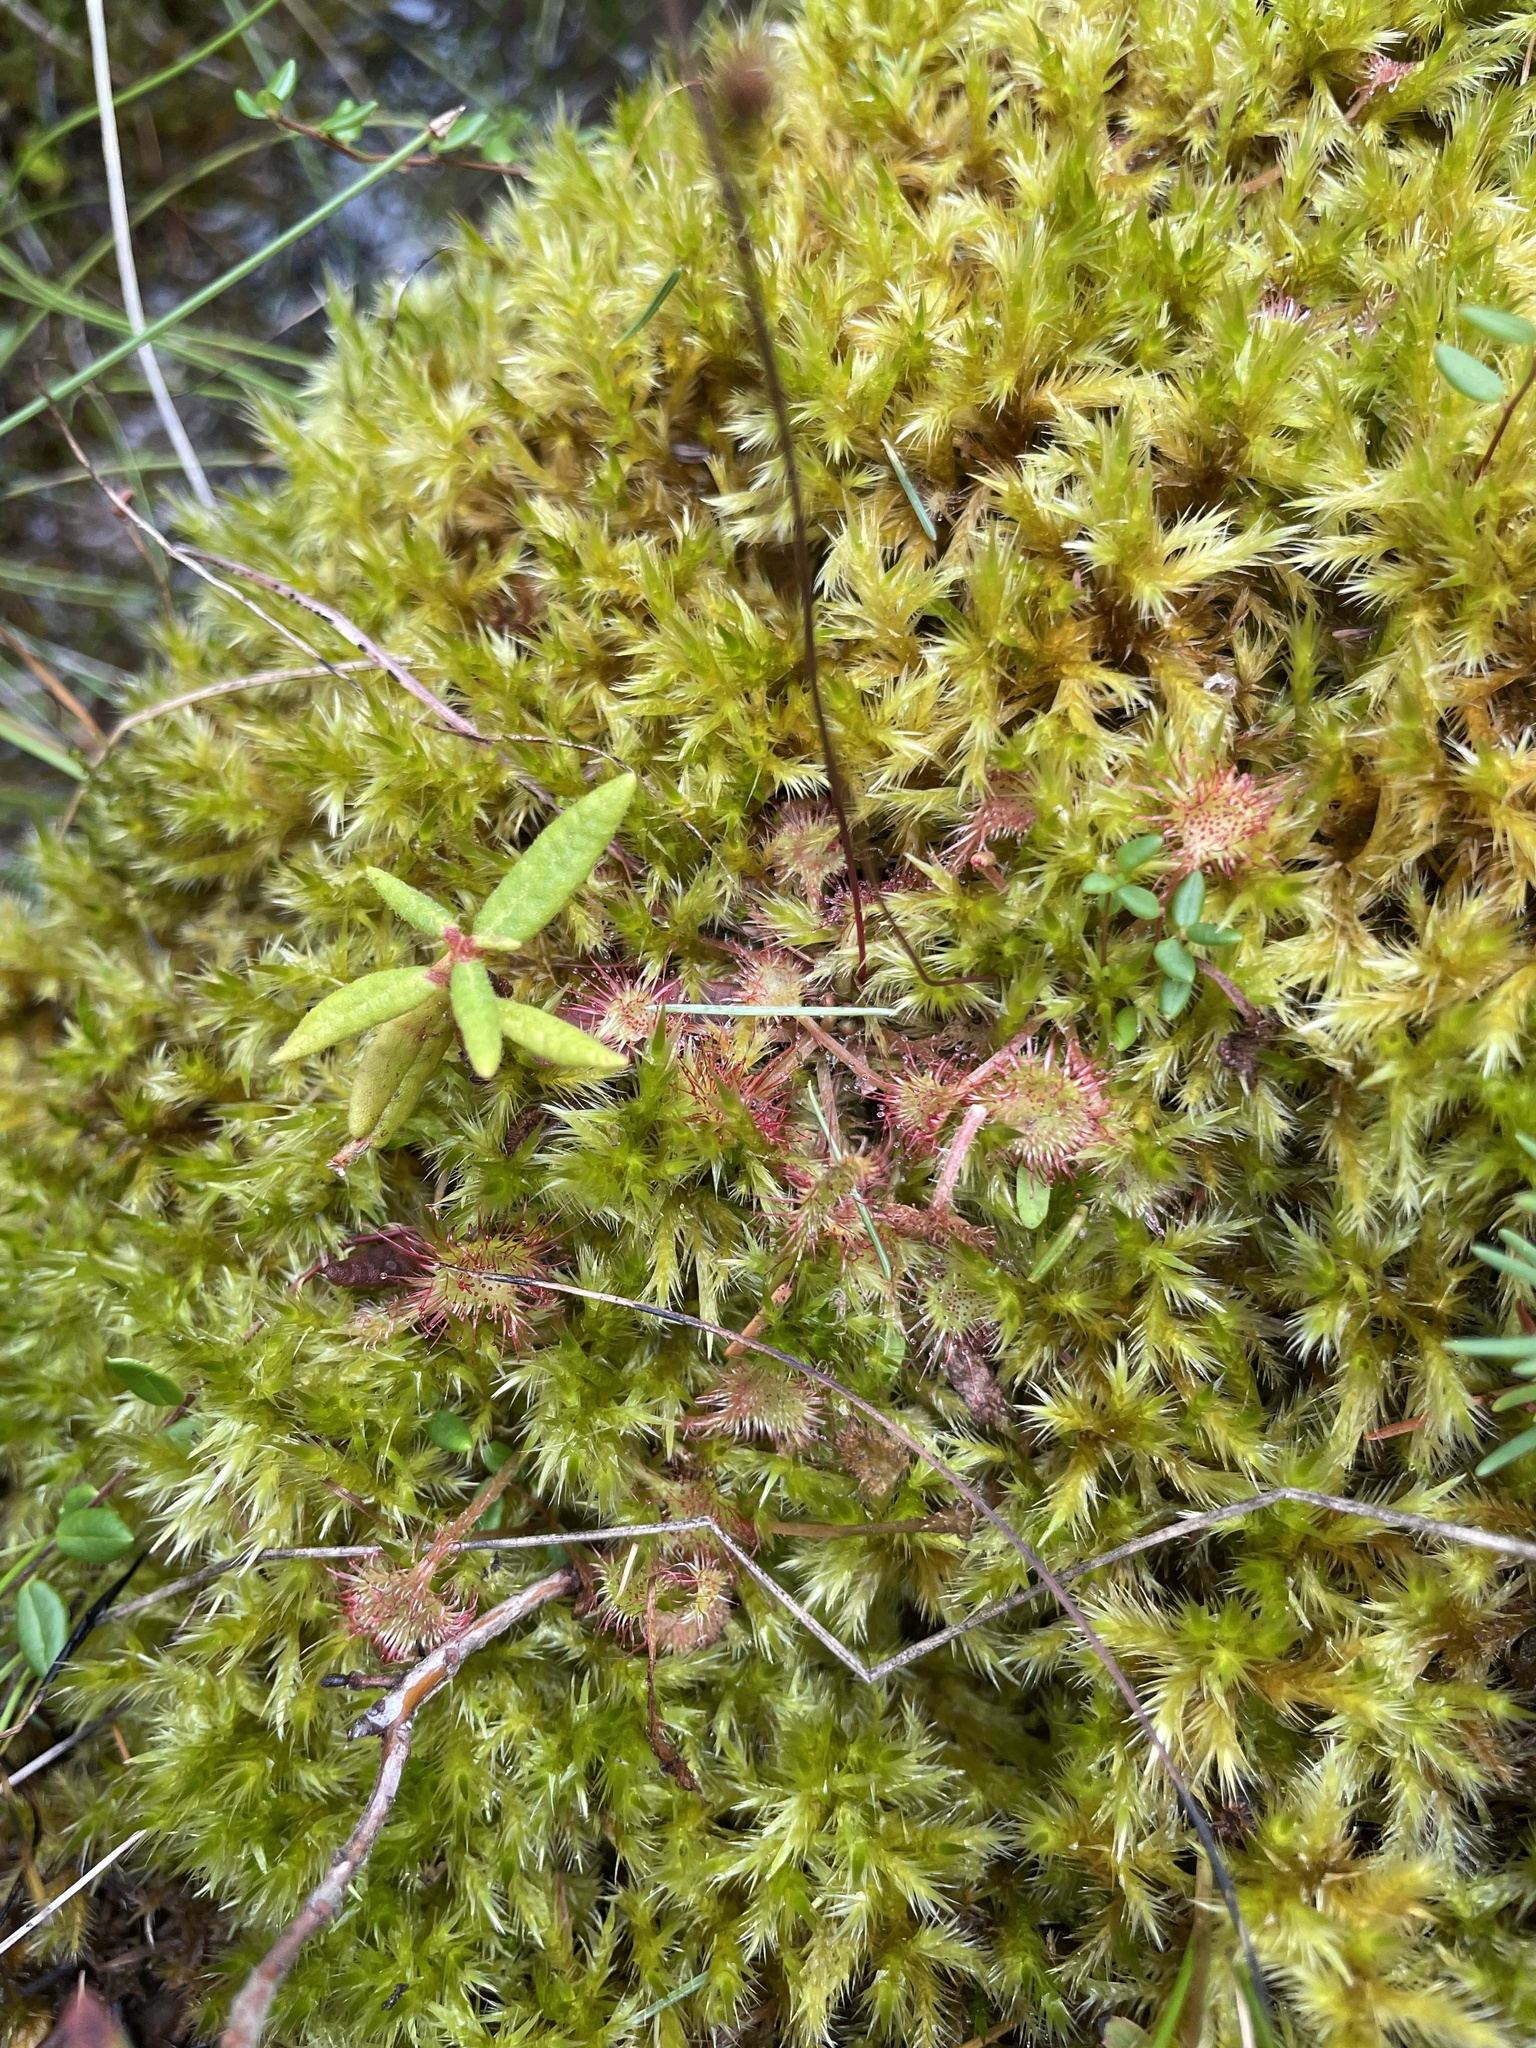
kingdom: Plantae
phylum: Tracheophyta
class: Magnoliopsida
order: Caryophyllales
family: Droseraceae
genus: Drosera
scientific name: Drosera rotundifolia
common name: Round-leaved sundew
